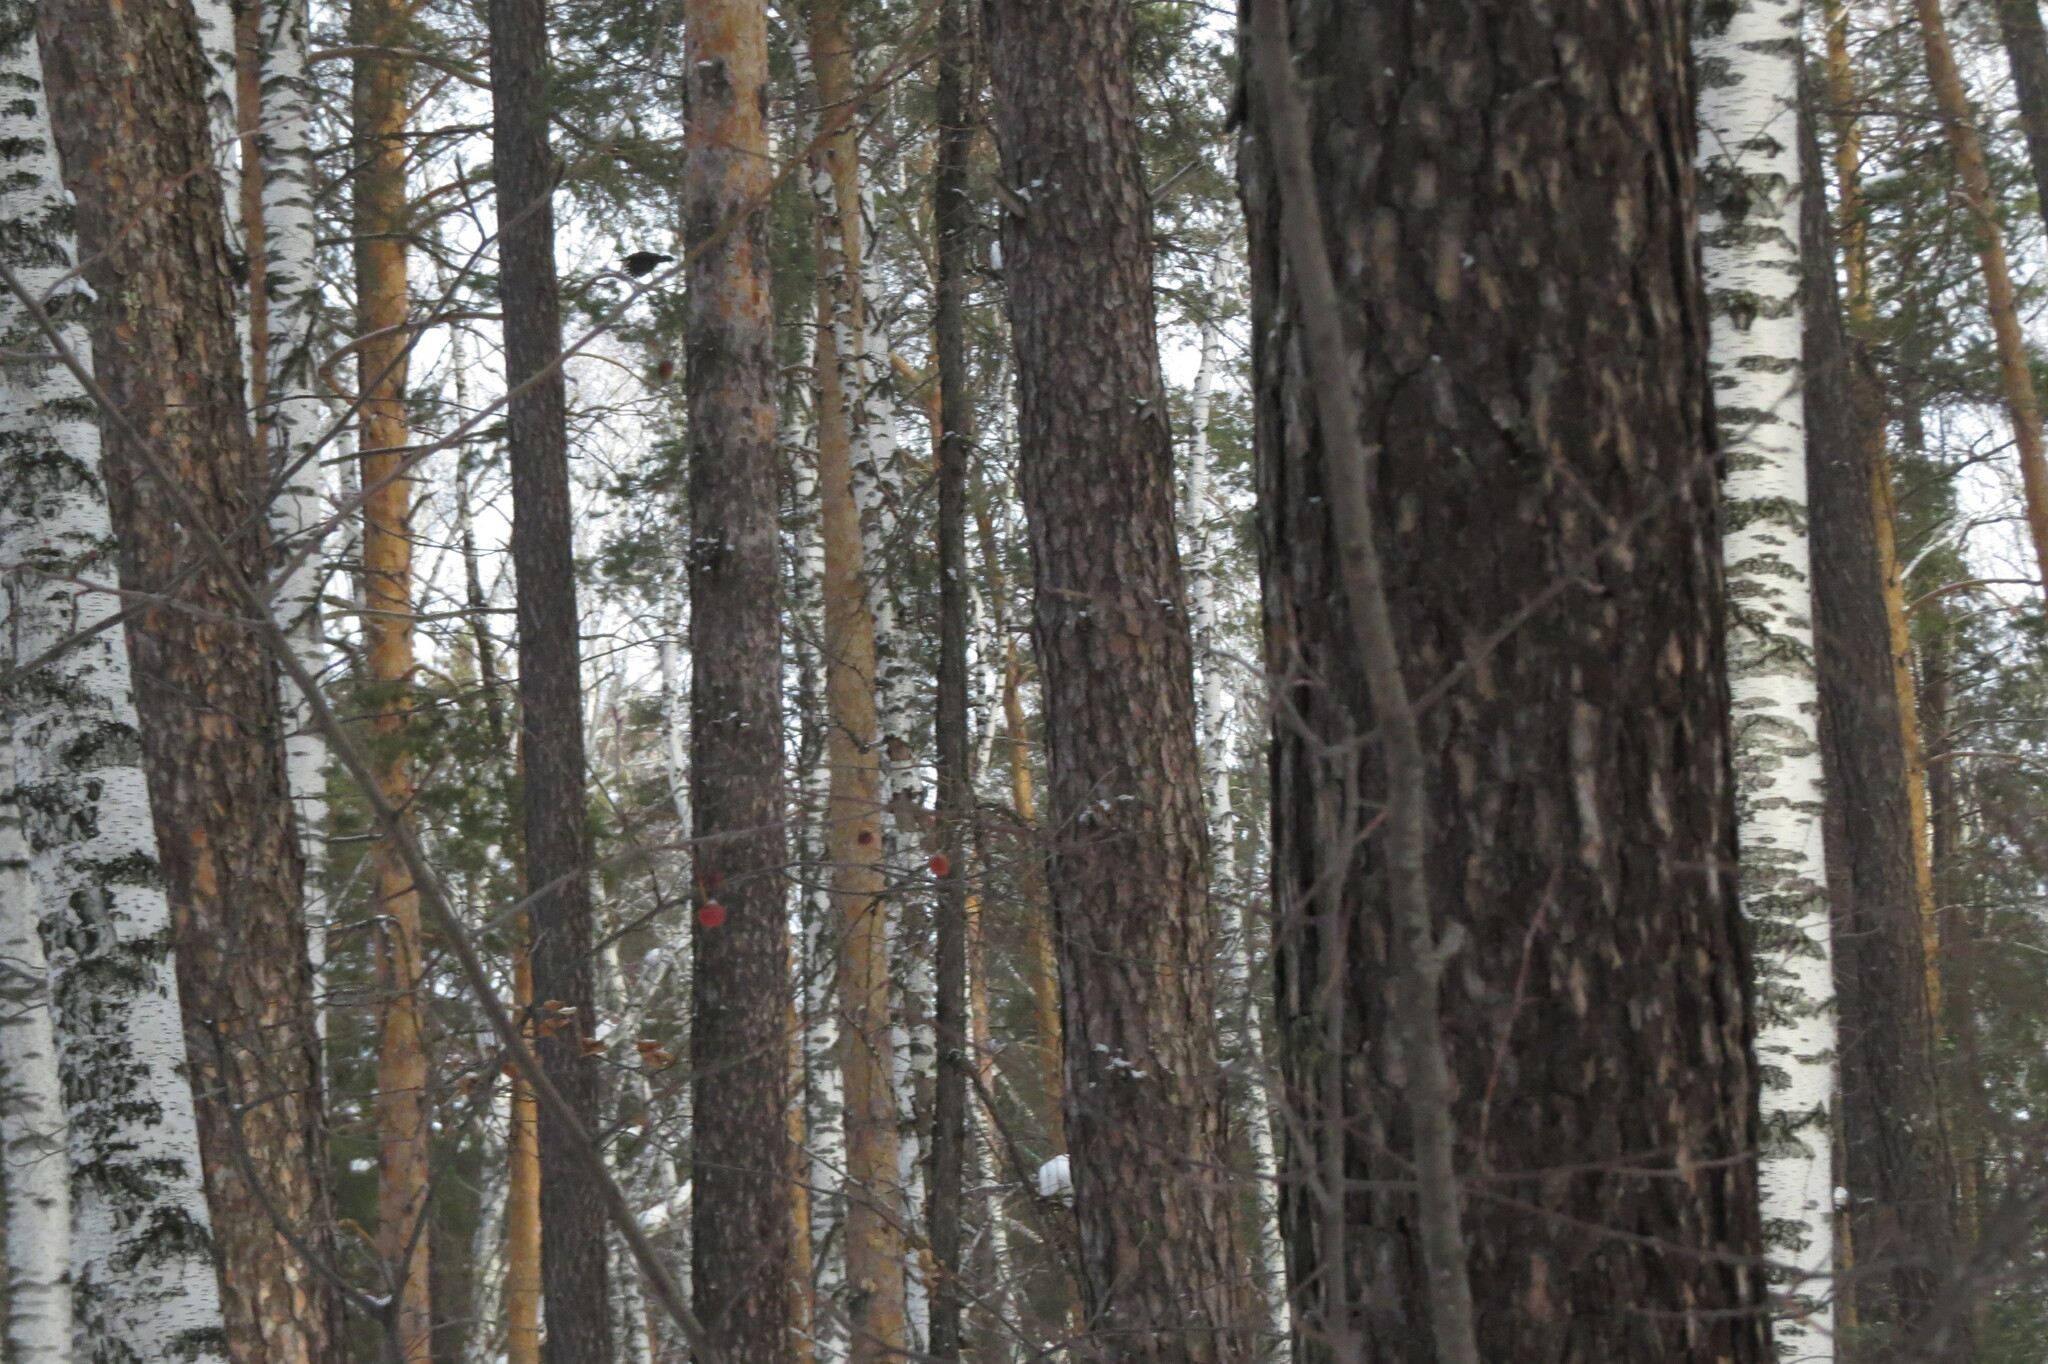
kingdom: Animalia
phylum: Chordata
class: Aves
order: Piciformes
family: Picidae
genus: Dryocopus
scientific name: Dryocopus martius
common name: Black woodpecker
